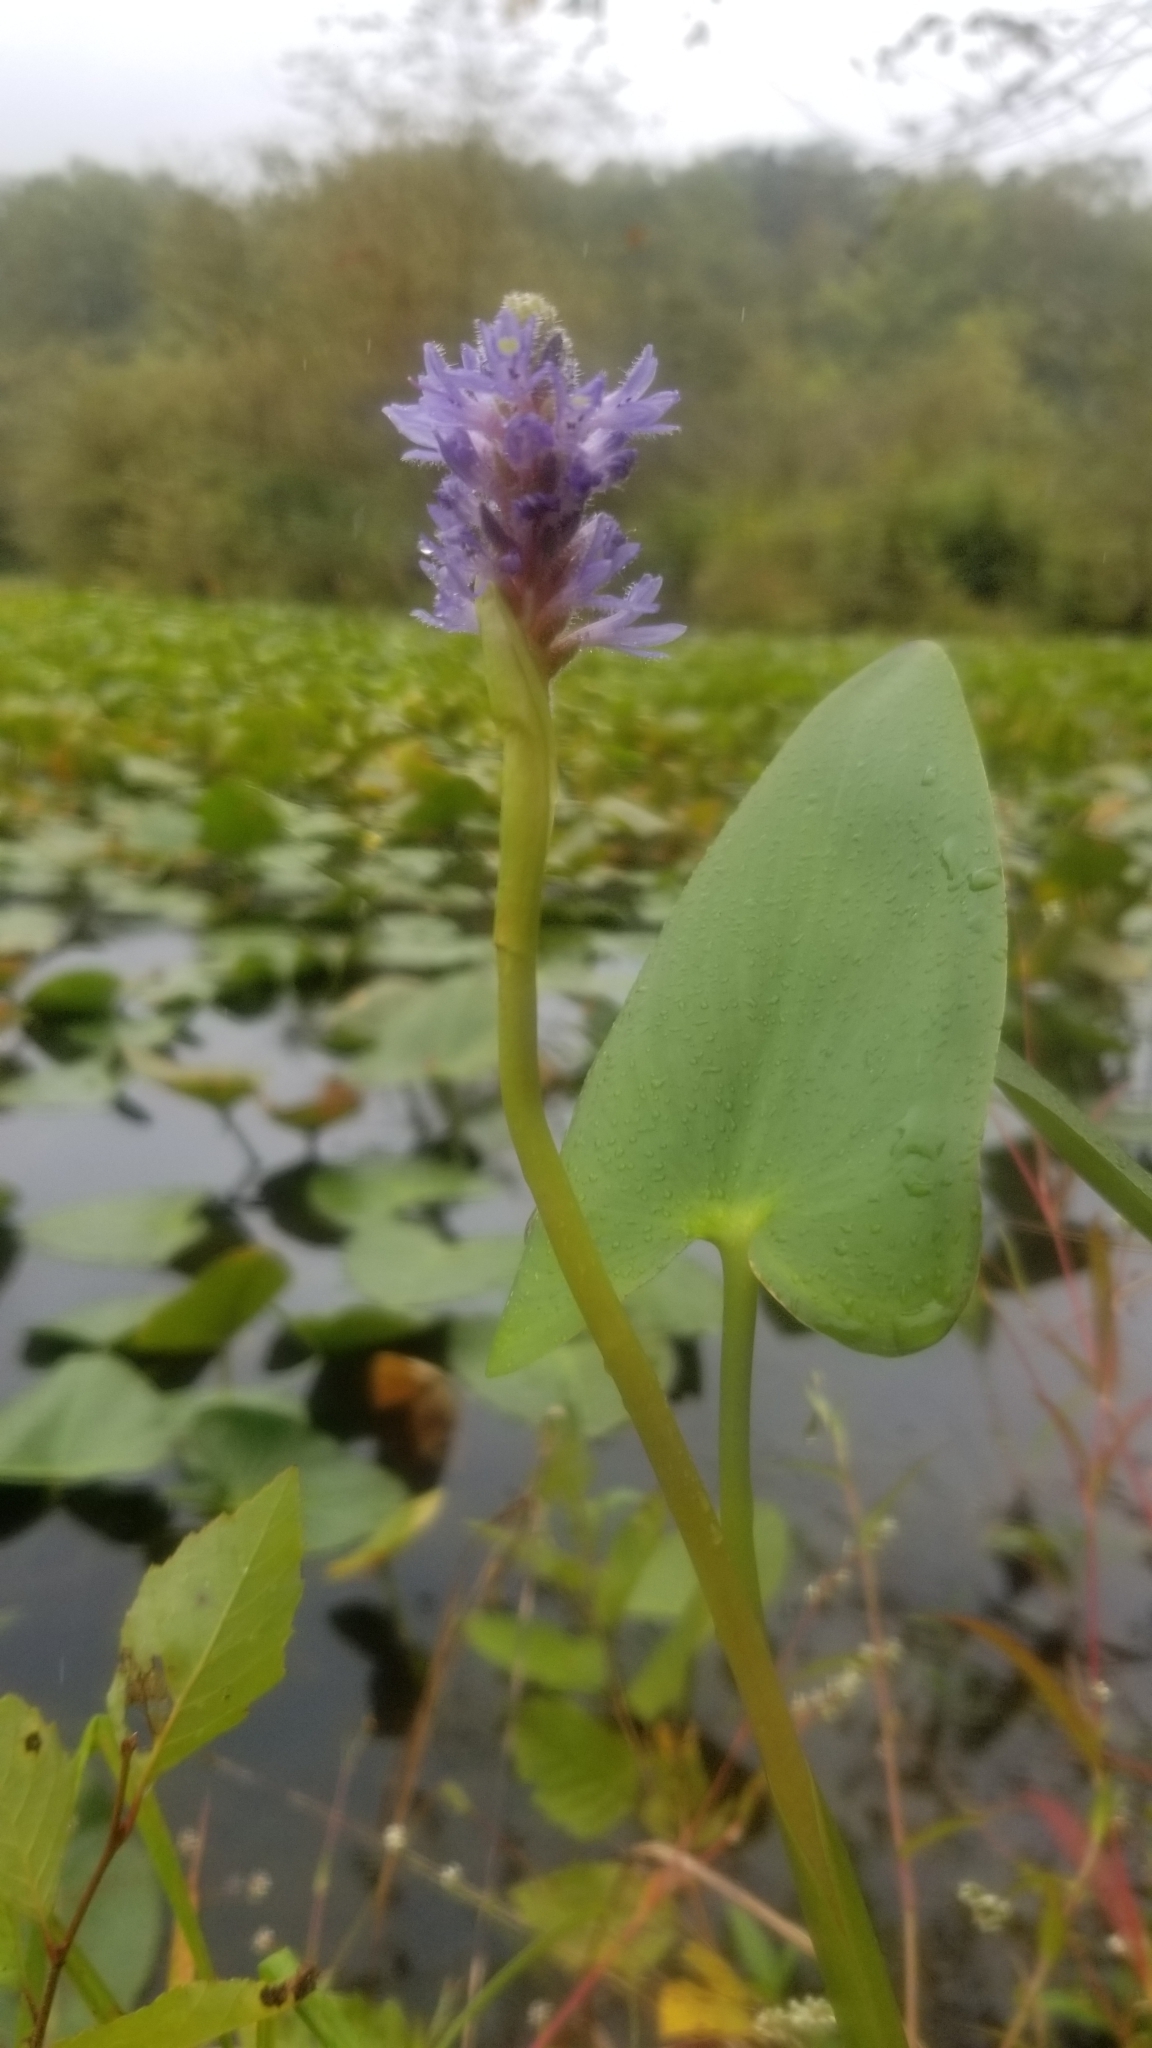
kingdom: Plantae
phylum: Tracheophyta
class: Liliopsida
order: Commelinales
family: Pontederiaceae
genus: Pontederia
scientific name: Pontederia cordata
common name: Pickerelweed
